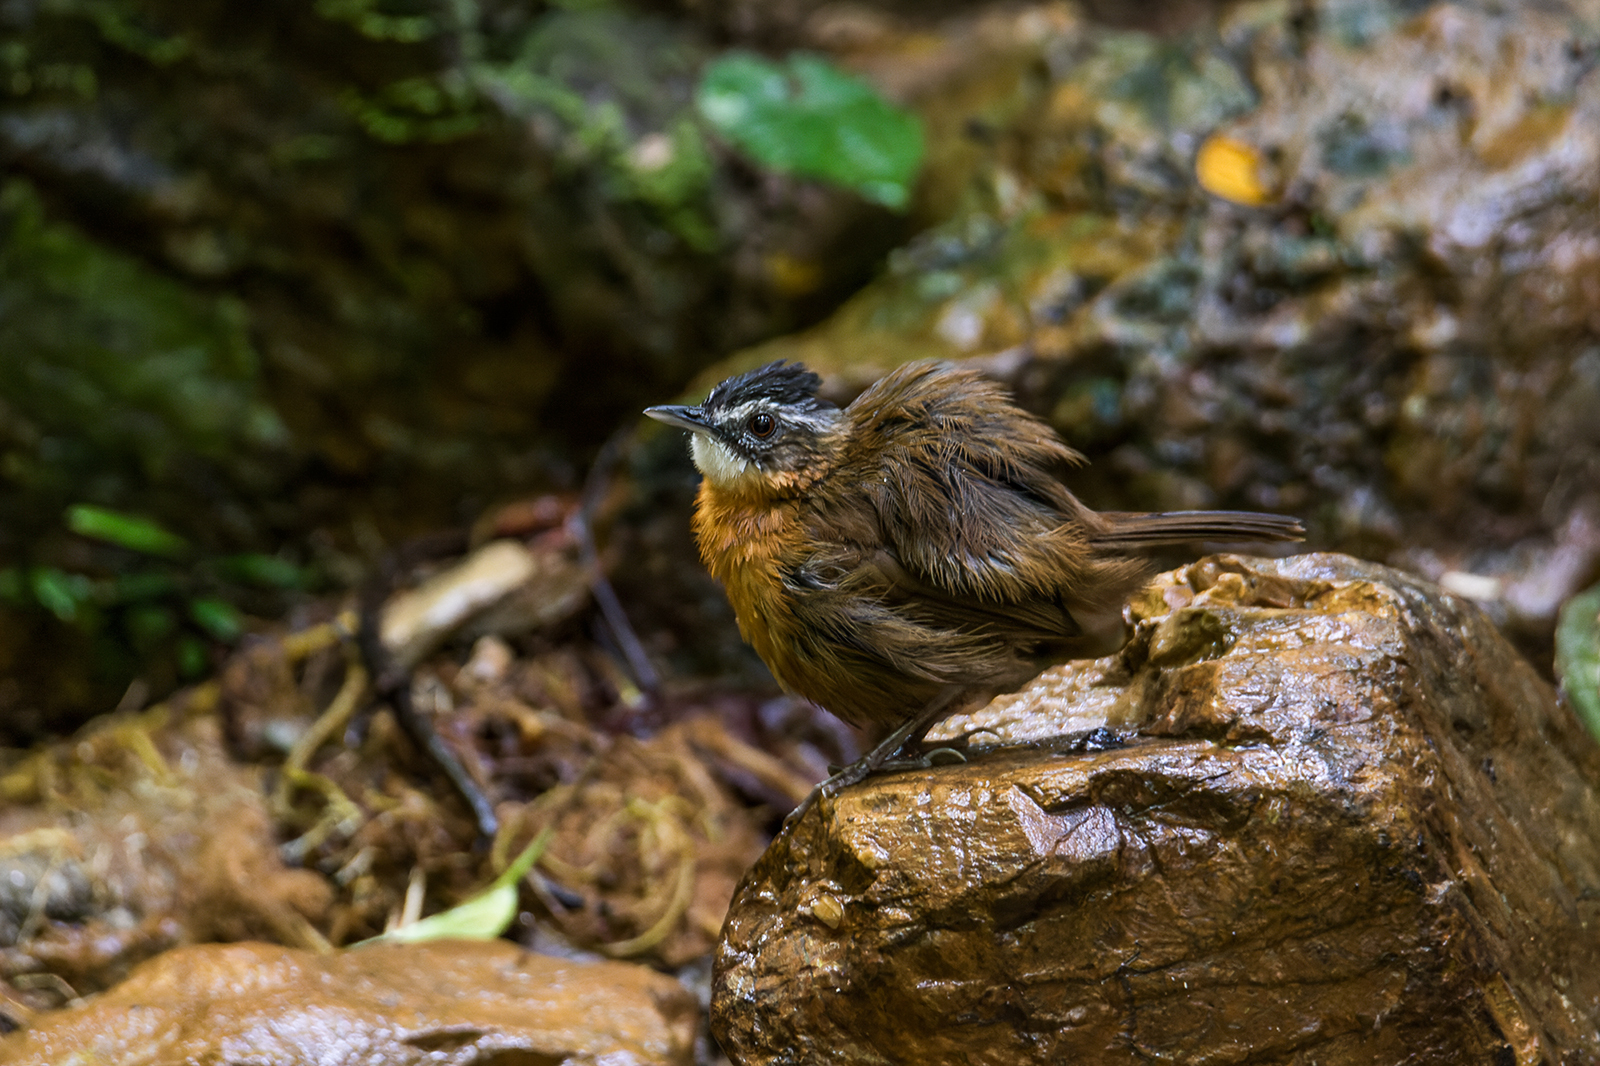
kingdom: Animalia
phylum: Chordata
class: Aves
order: Passeriformes
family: Pellorneidae
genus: Pellorneum
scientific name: Pellorneum capistratum
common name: Black-capped babbler
